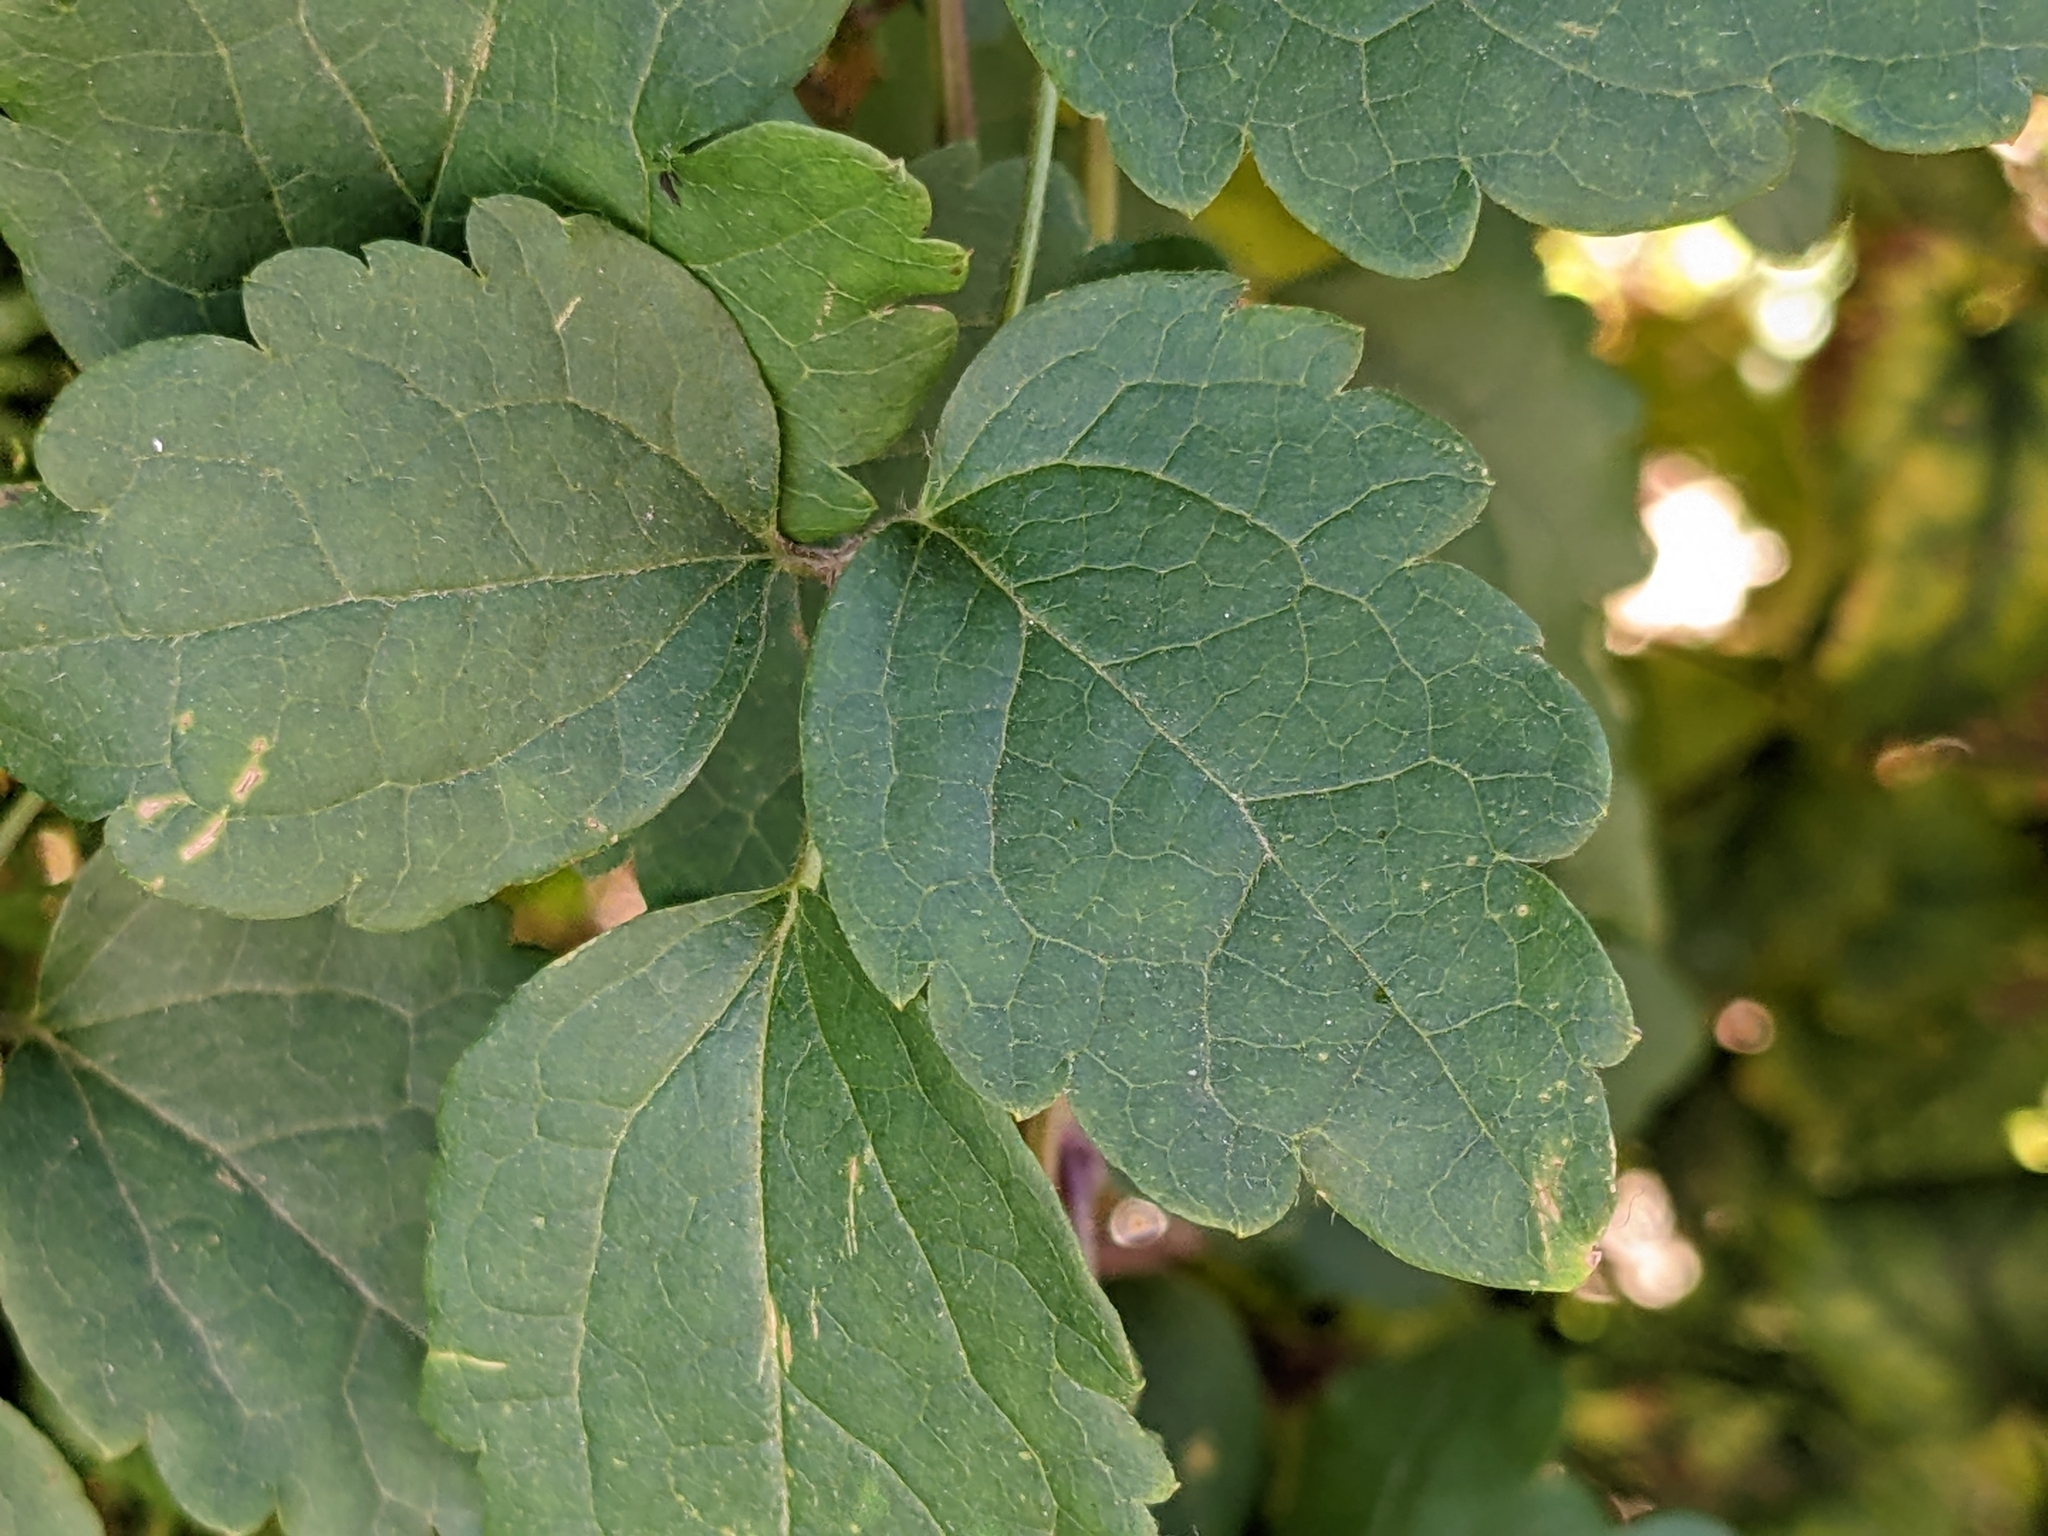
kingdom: Plantae
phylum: Tracheophyta
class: Magnoliopsida
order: Ranunculales
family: Ranunculaceae
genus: Clematis
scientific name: Clematis vitalba
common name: Evergreen clematis
